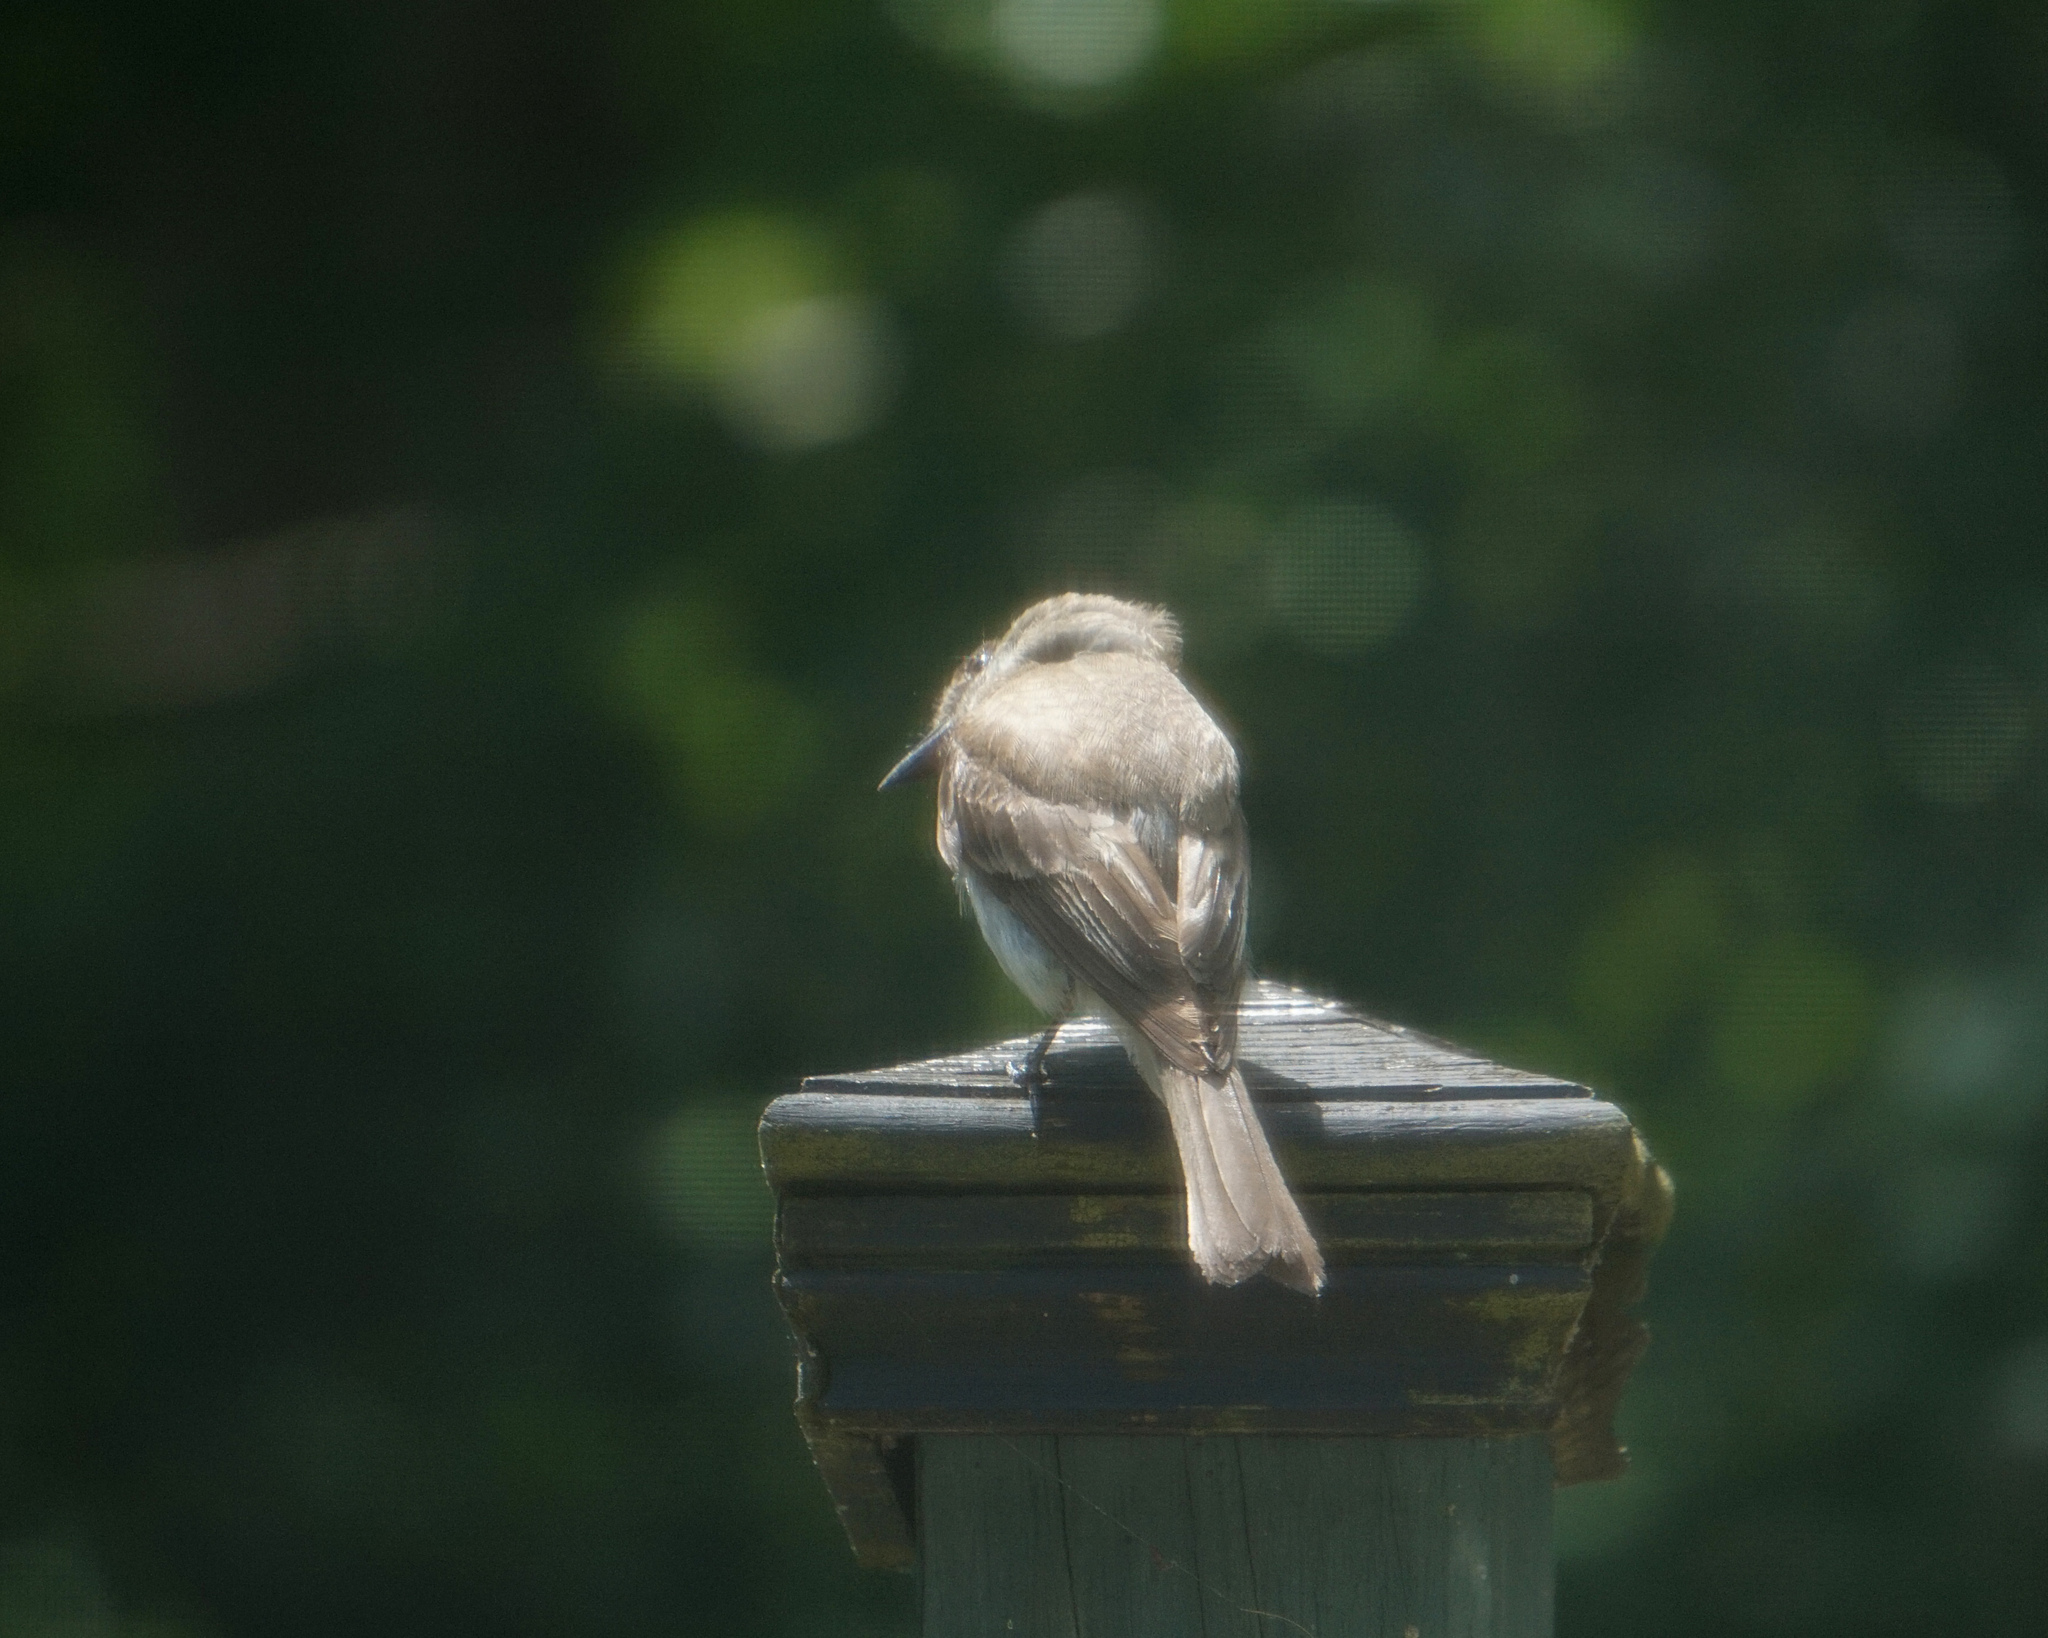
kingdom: Animalia
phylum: Chordata
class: Aves
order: Passeriformes
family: Tyrannidae
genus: Sayornis
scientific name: Sayornis phoebe
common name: Eastern phoebe
